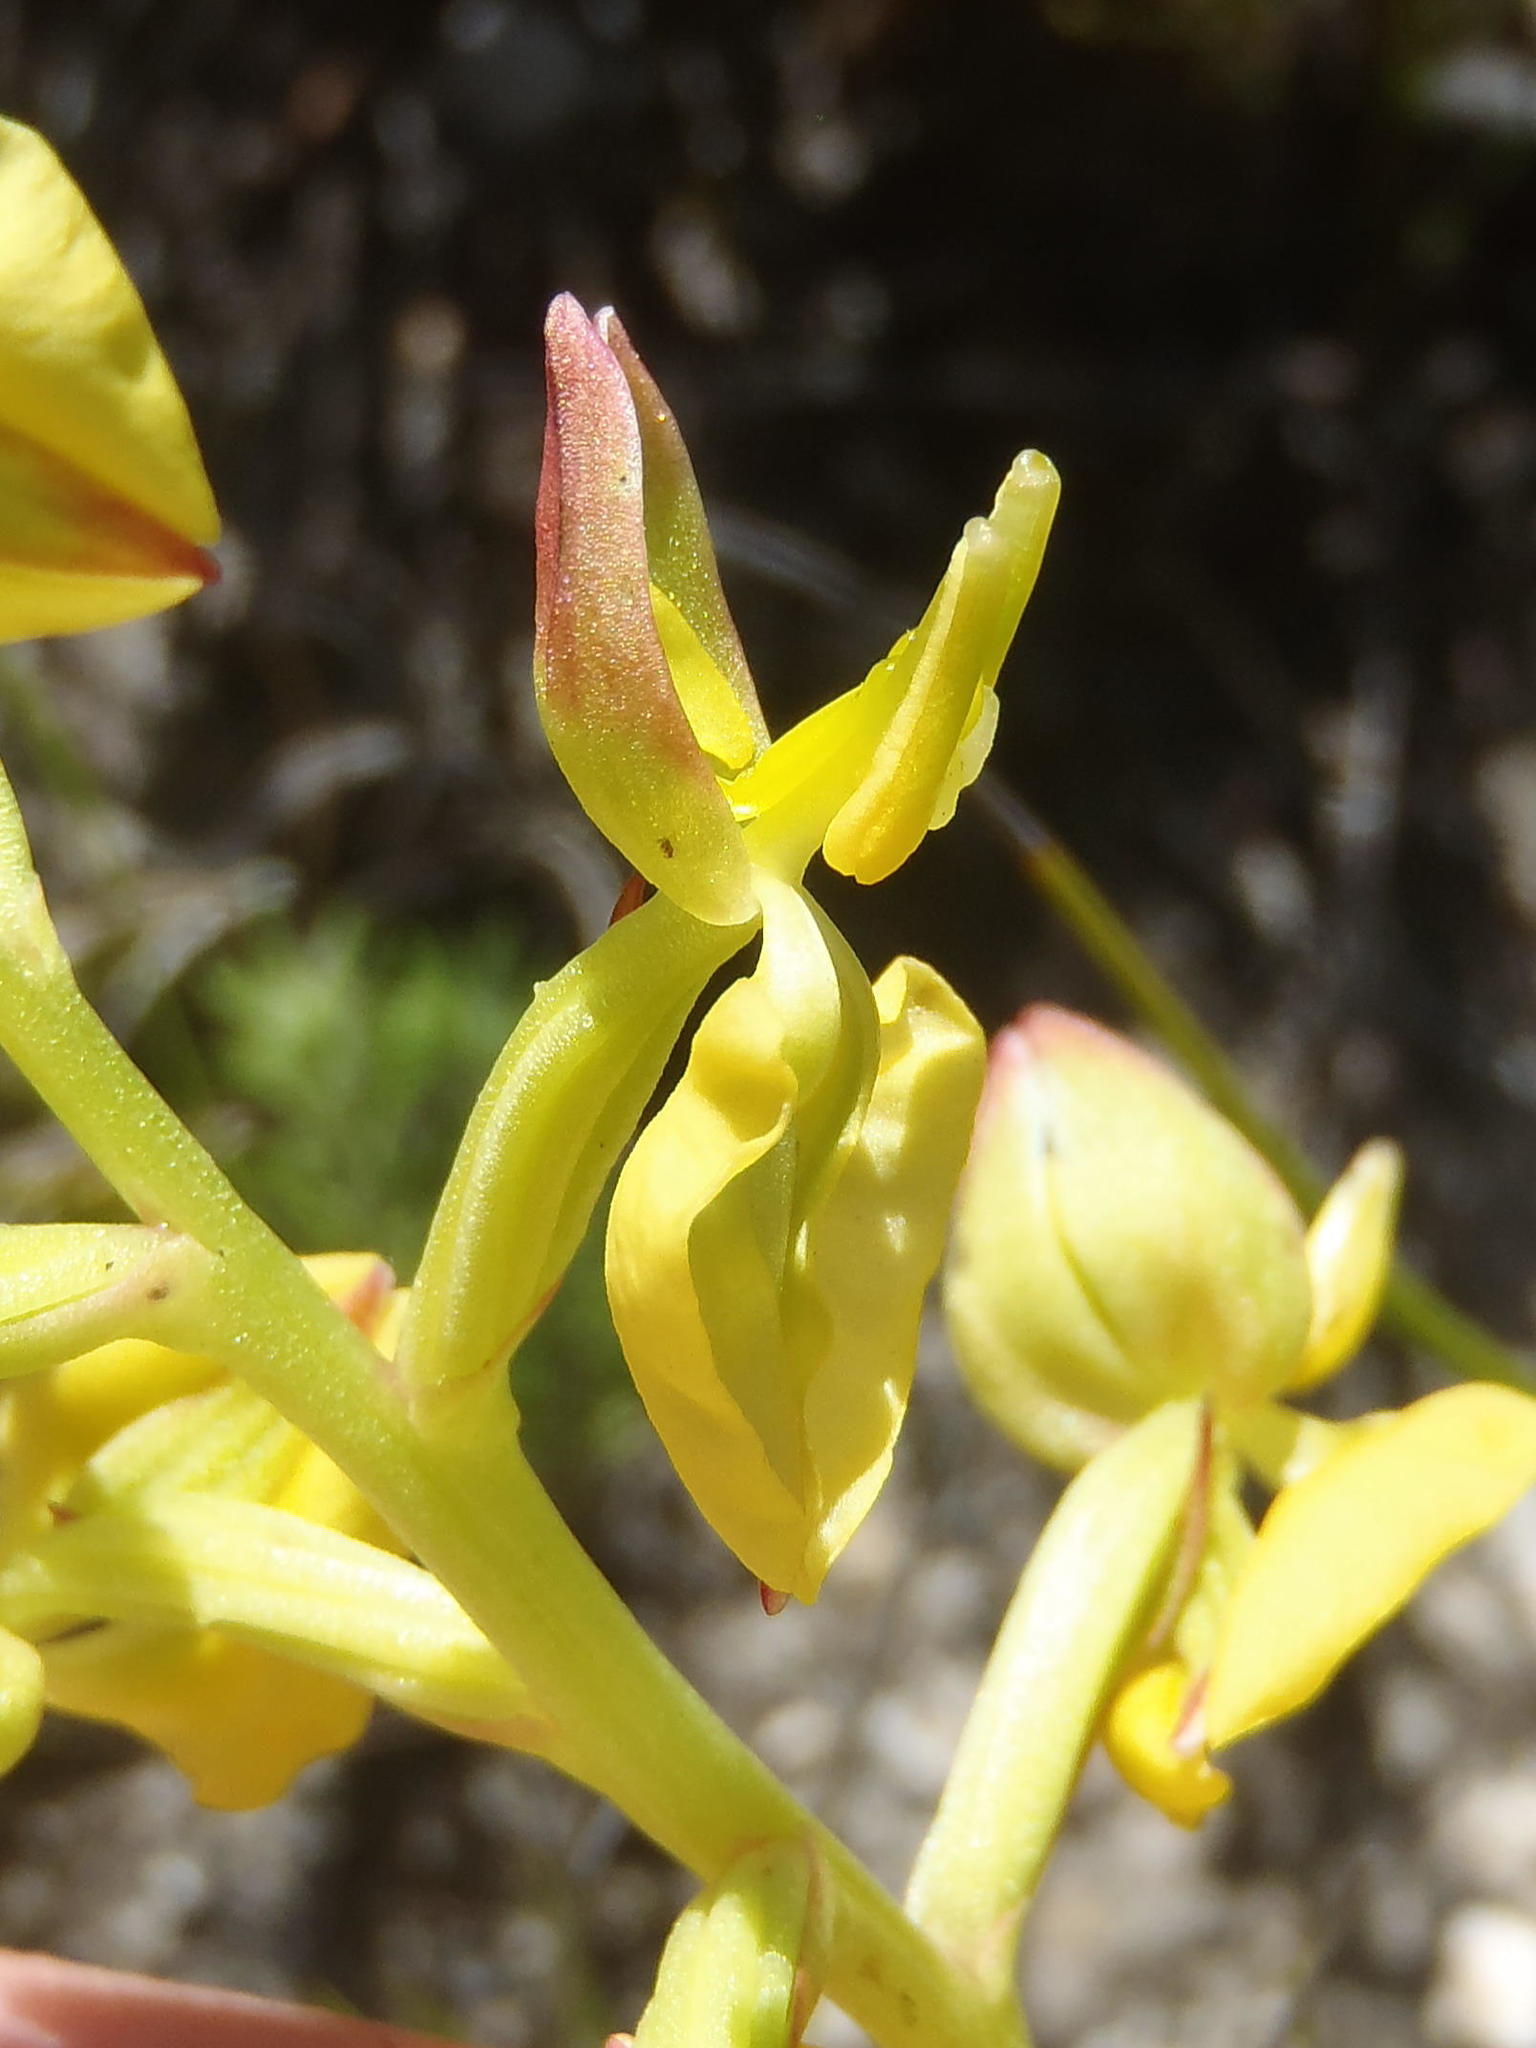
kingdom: Plantae
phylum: Tracheophyta
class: Liliopsida
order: Asparagales
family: Orchidaceae
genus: Ceratandra
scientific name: Ceratandra atrata
